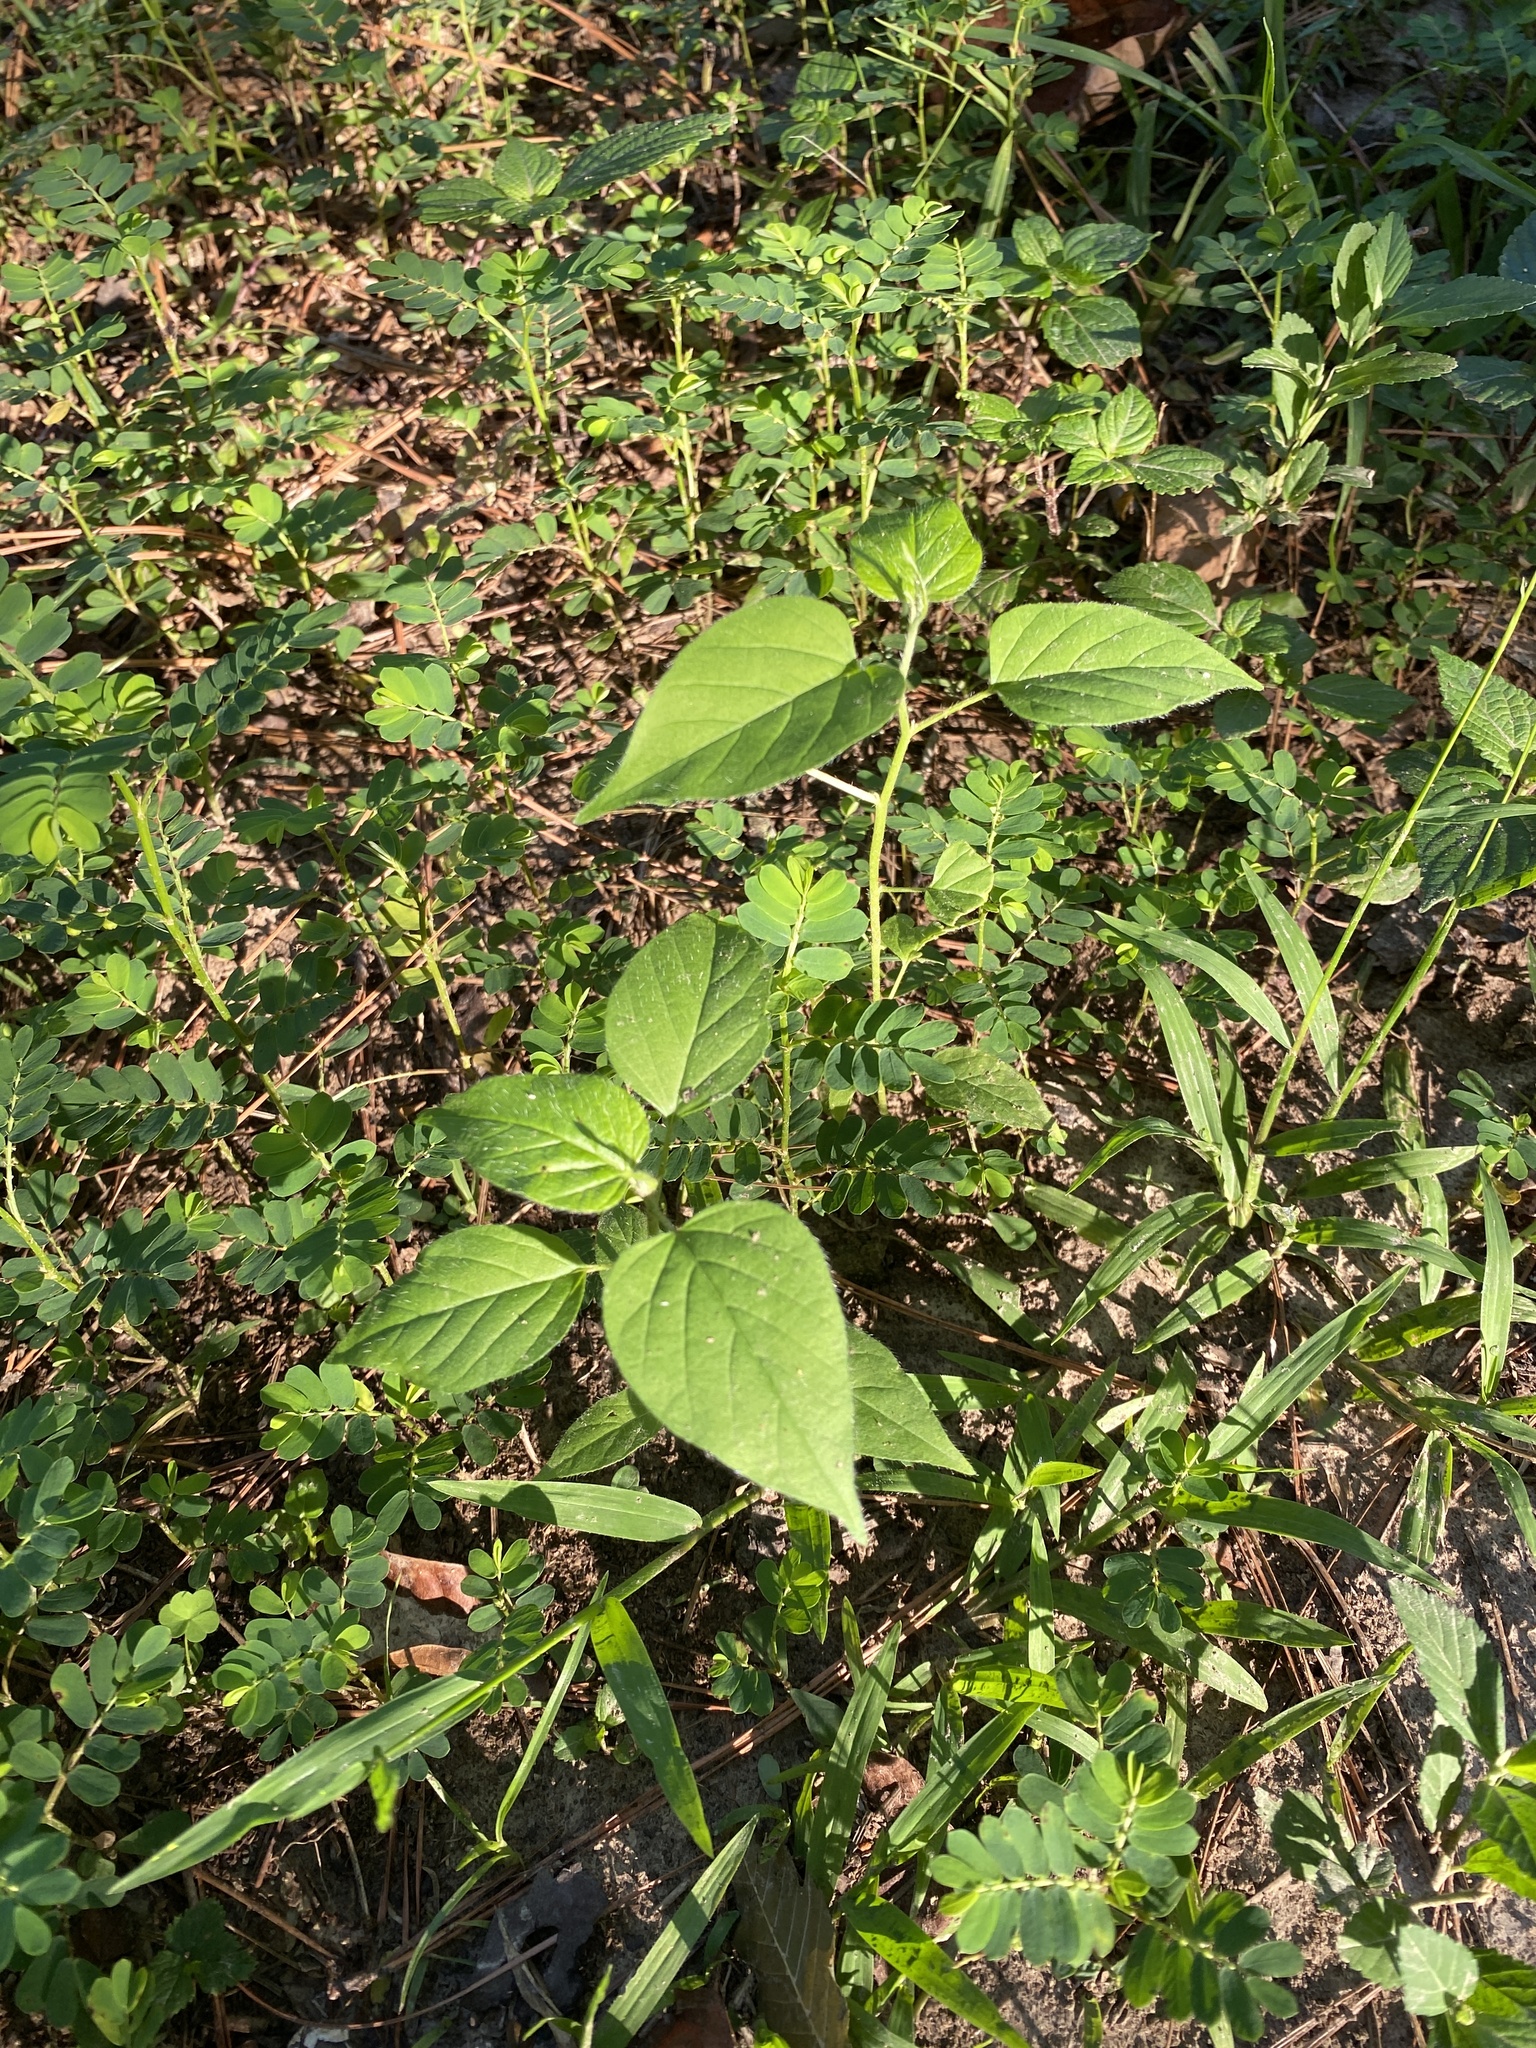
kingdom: Plantae
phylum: Tracheophyta
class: Magnoliopsida
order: Solanales
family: Convolvulaceae
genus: Jacquemontia
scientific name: Jacquemontia tamnifolia
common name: Hairy clustervine
